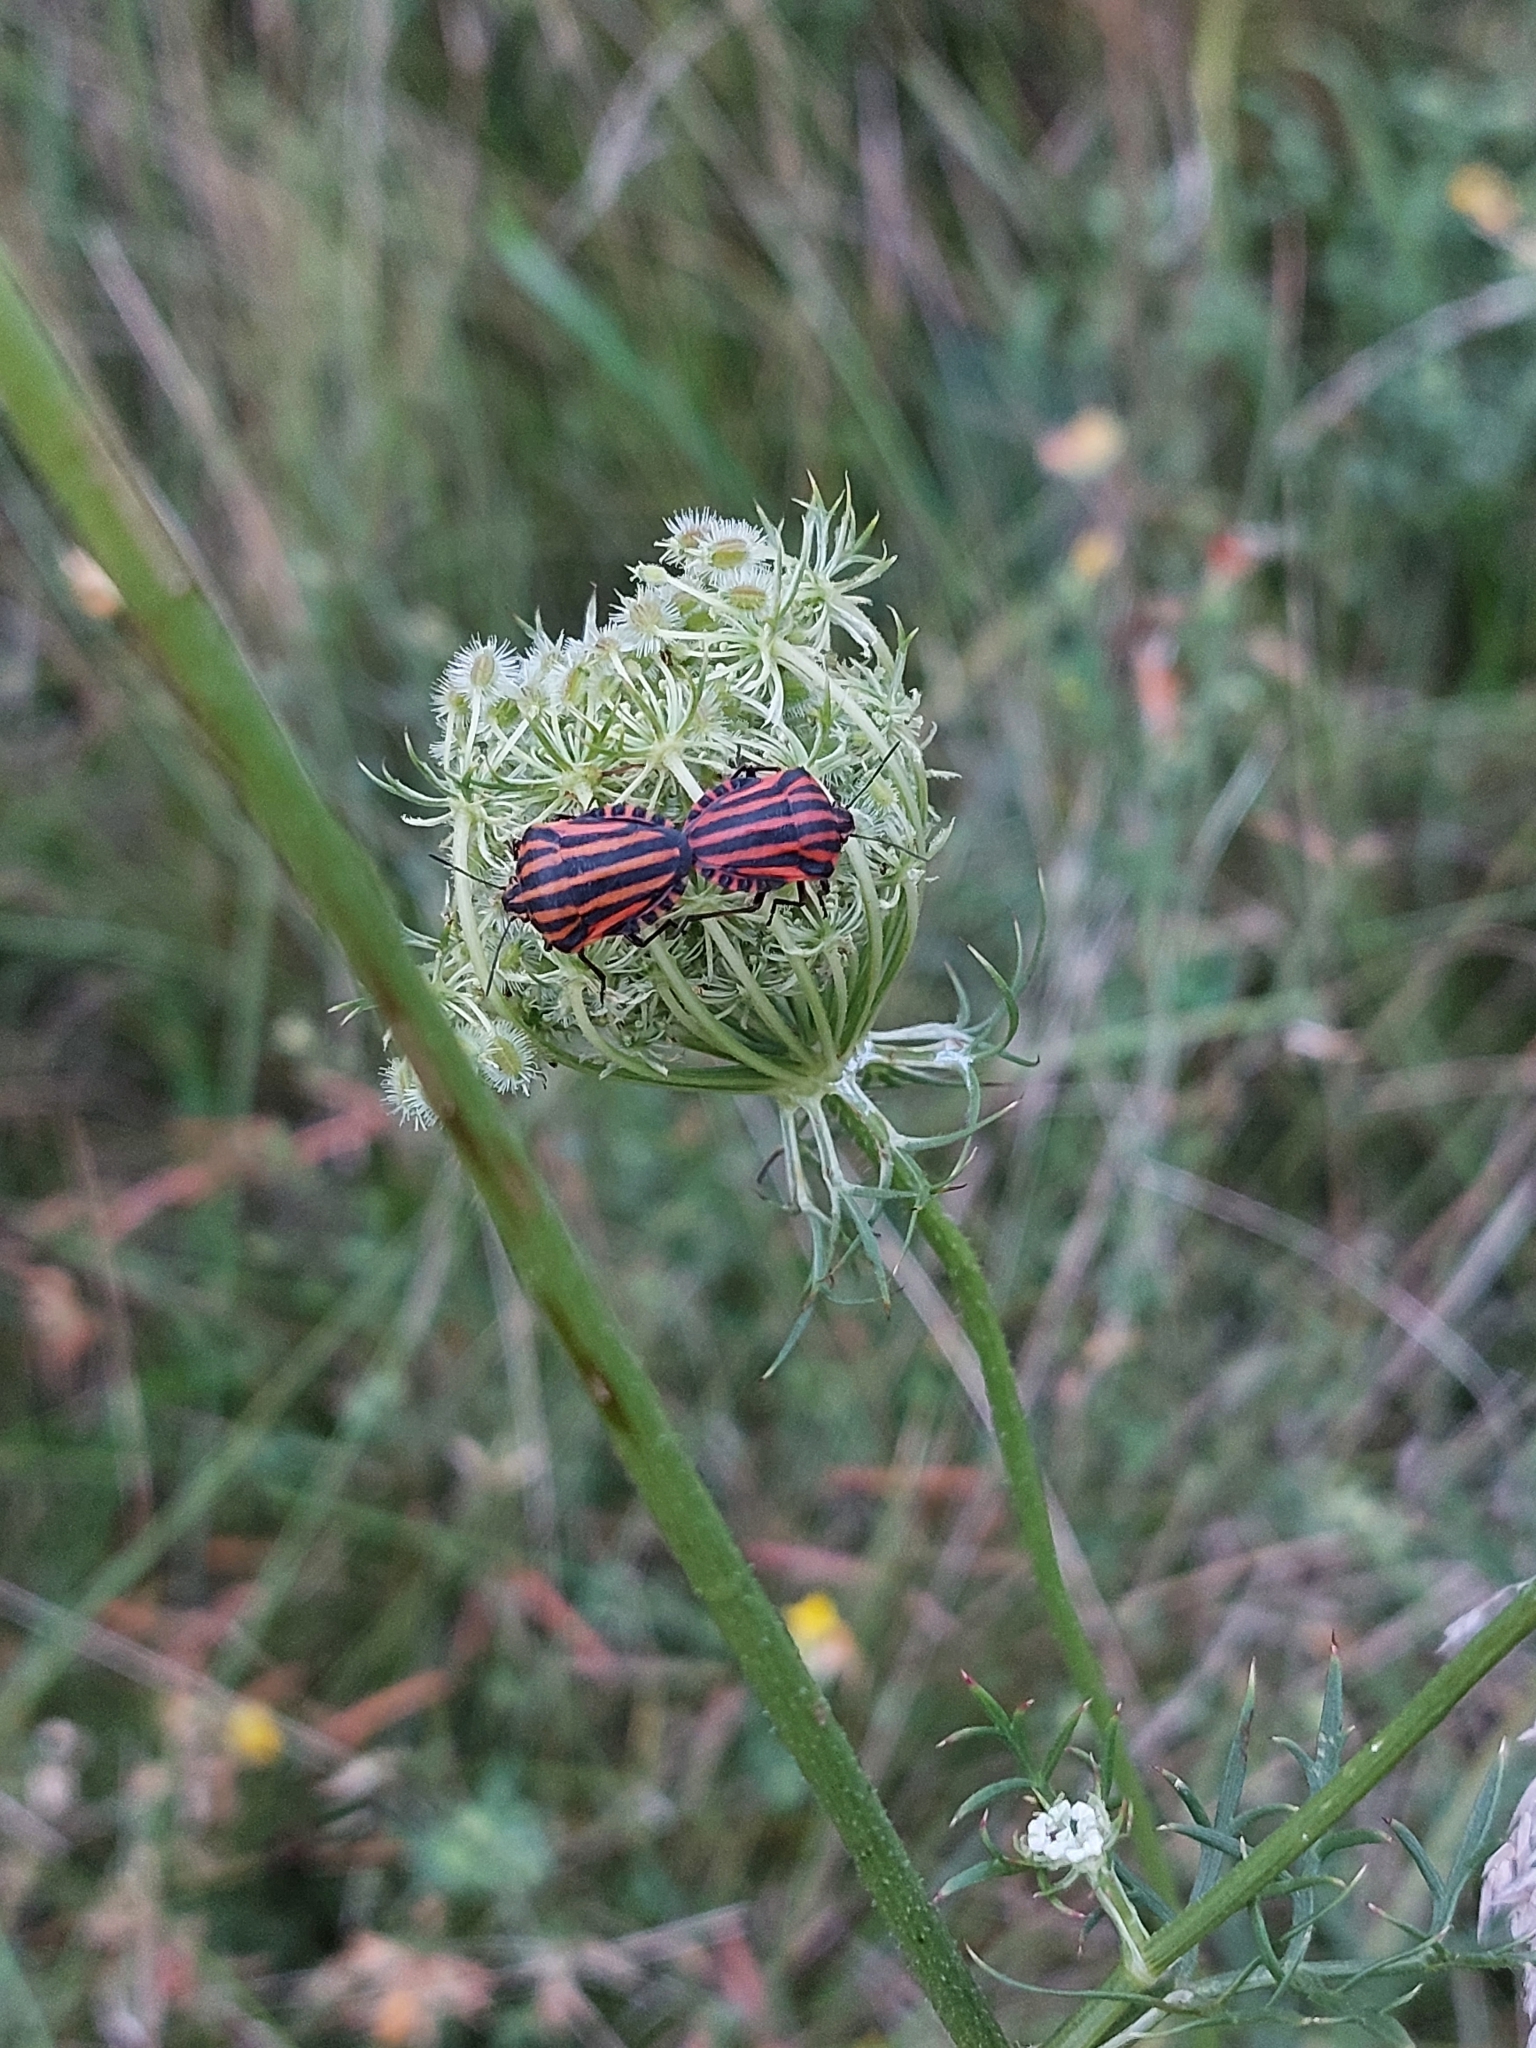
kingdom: Animalia
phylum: Arthropoda
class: Insecta
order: Hemiptera
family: Pentatomidae
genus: Graphosoma
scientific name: Graphosoma italicum
